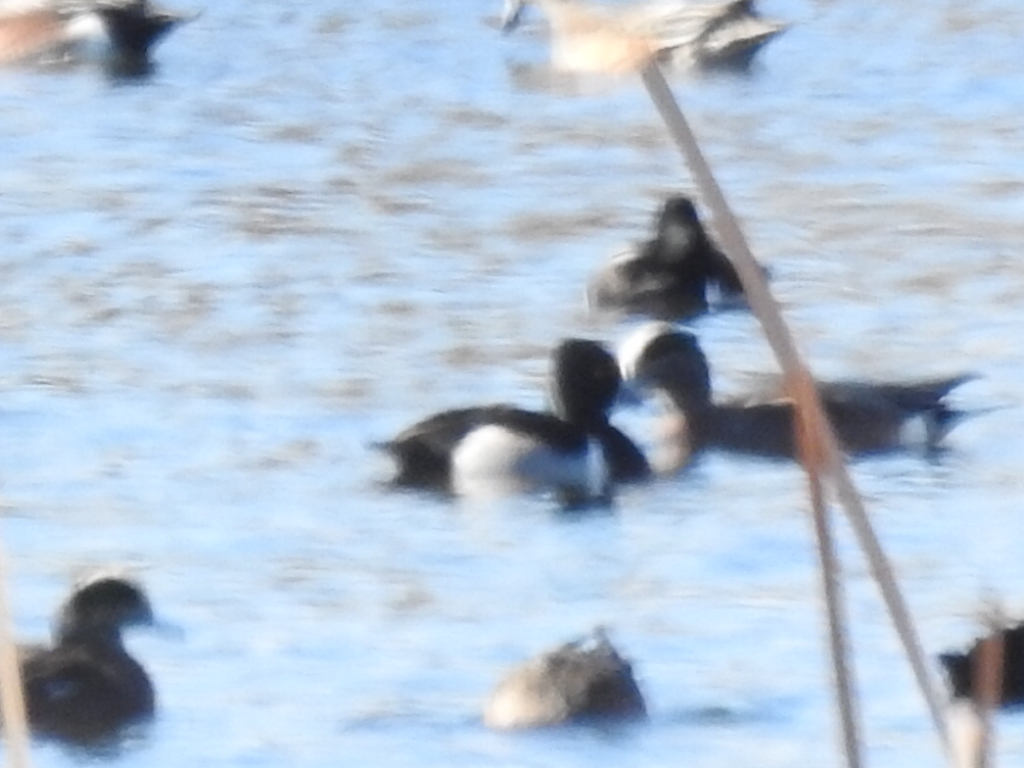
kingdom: Animalia
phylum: Chordata
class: Aves
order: Anseriformes
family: Anatidae
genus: Aythya
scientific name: Aythya collaris
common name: Ring-necked duck
